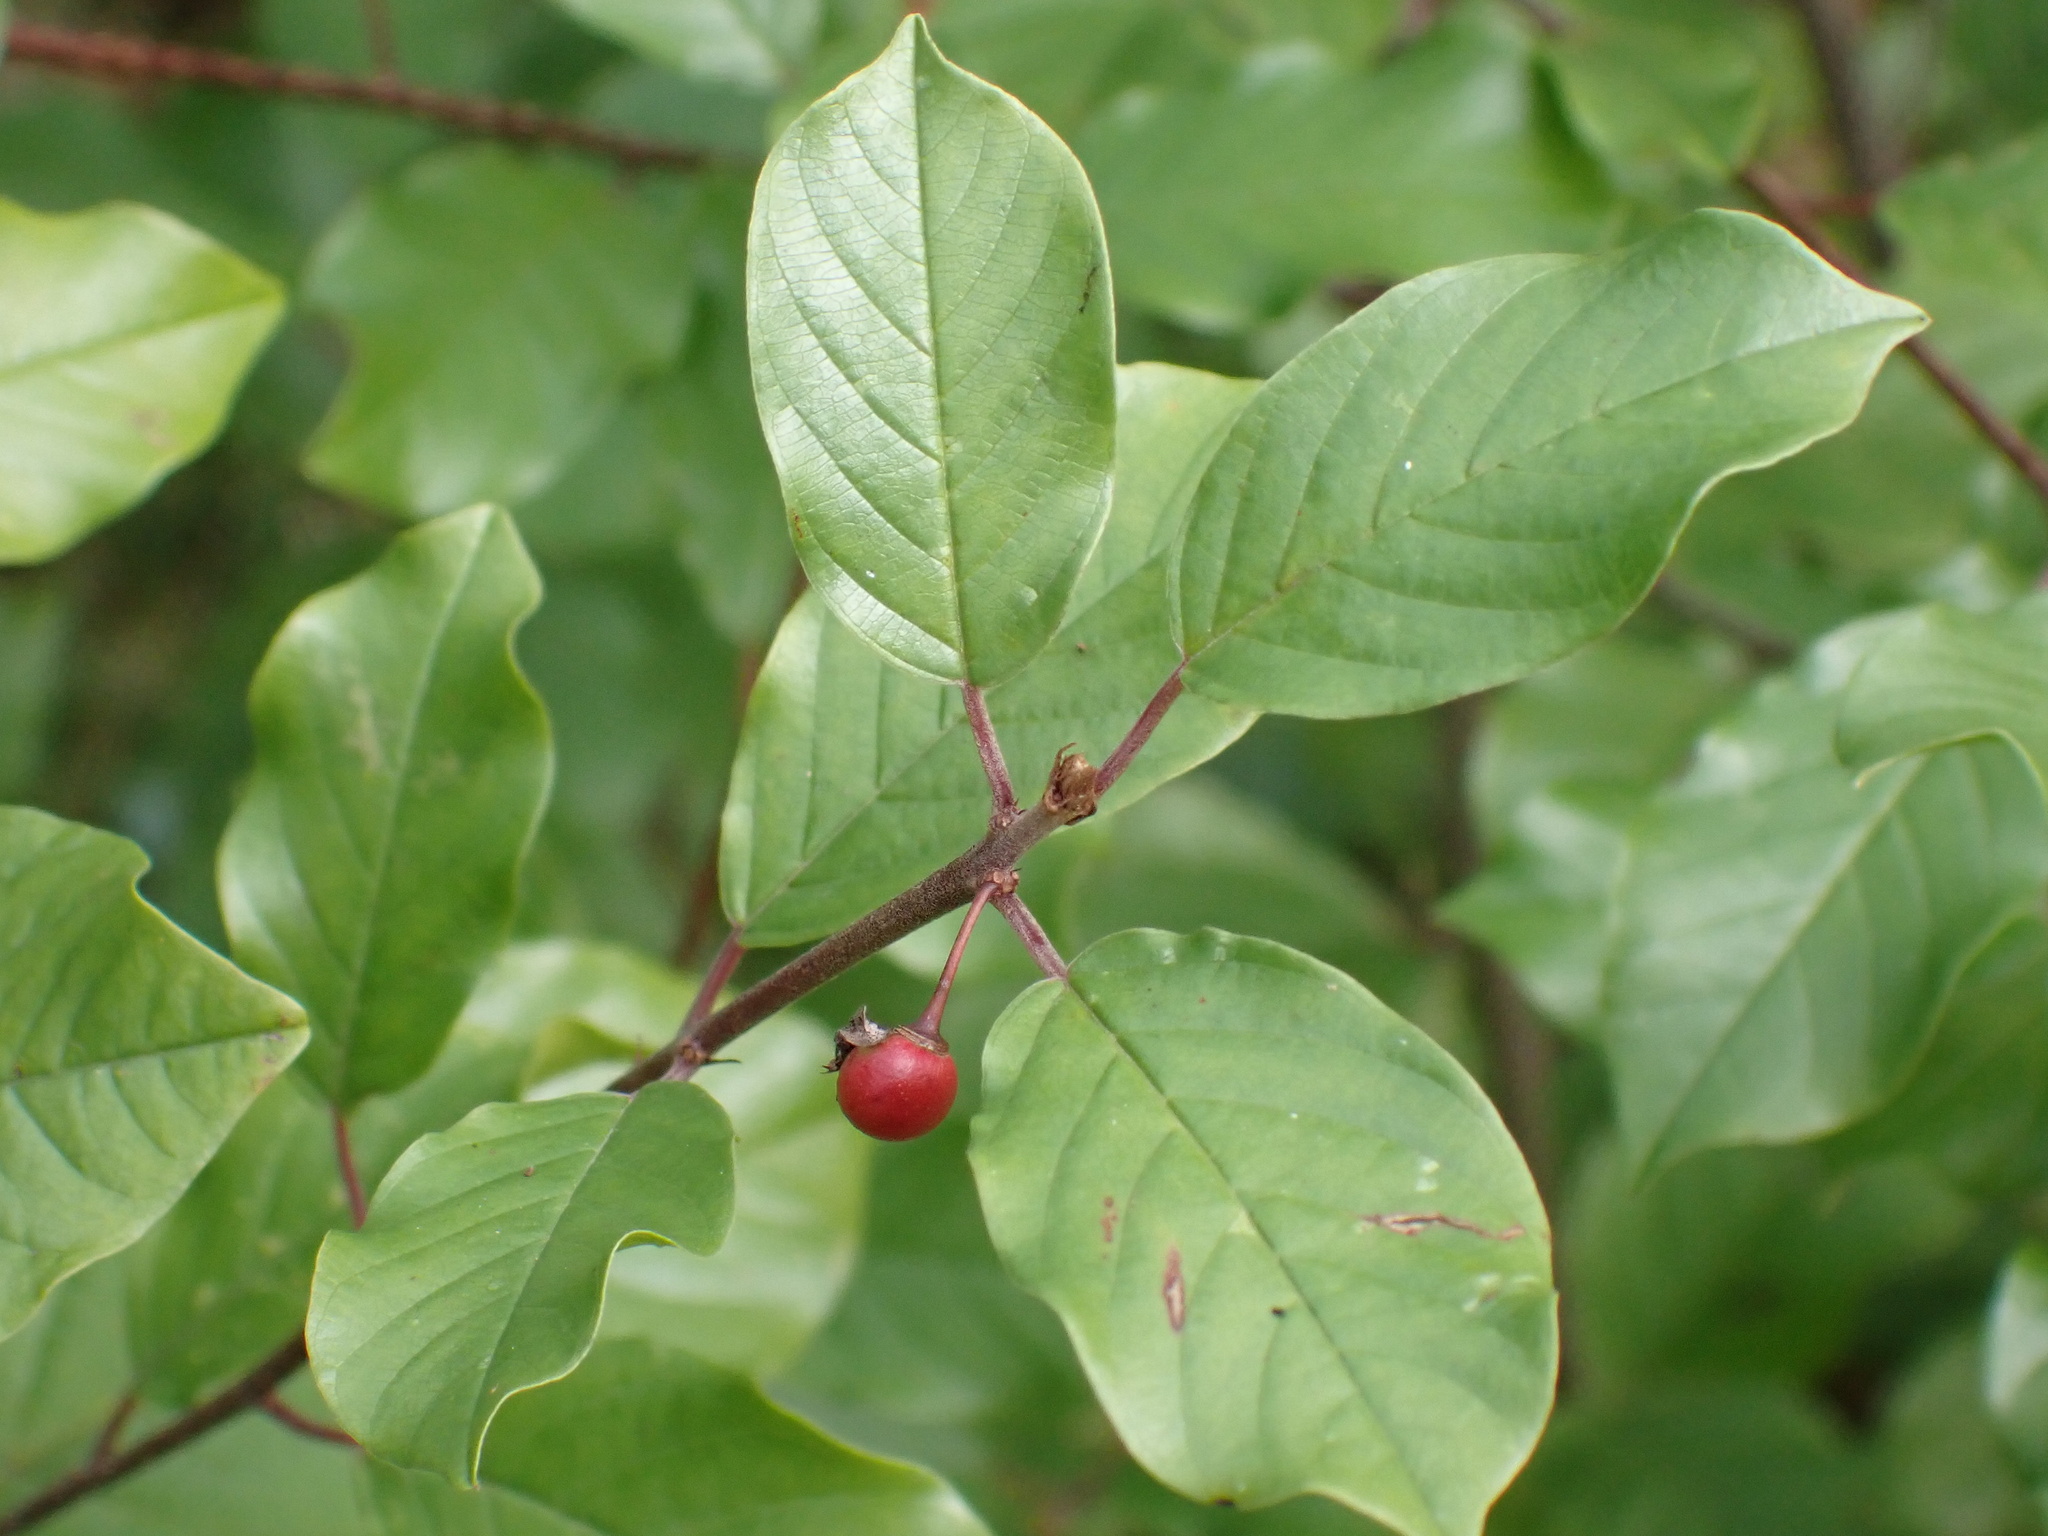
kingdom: Plantae
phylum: Tracheophyta
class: Magnoliopsida
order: Rosales
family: Rhamnaceae
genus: Frangula
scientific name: Frangula alnus
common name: Alder buckthorn
